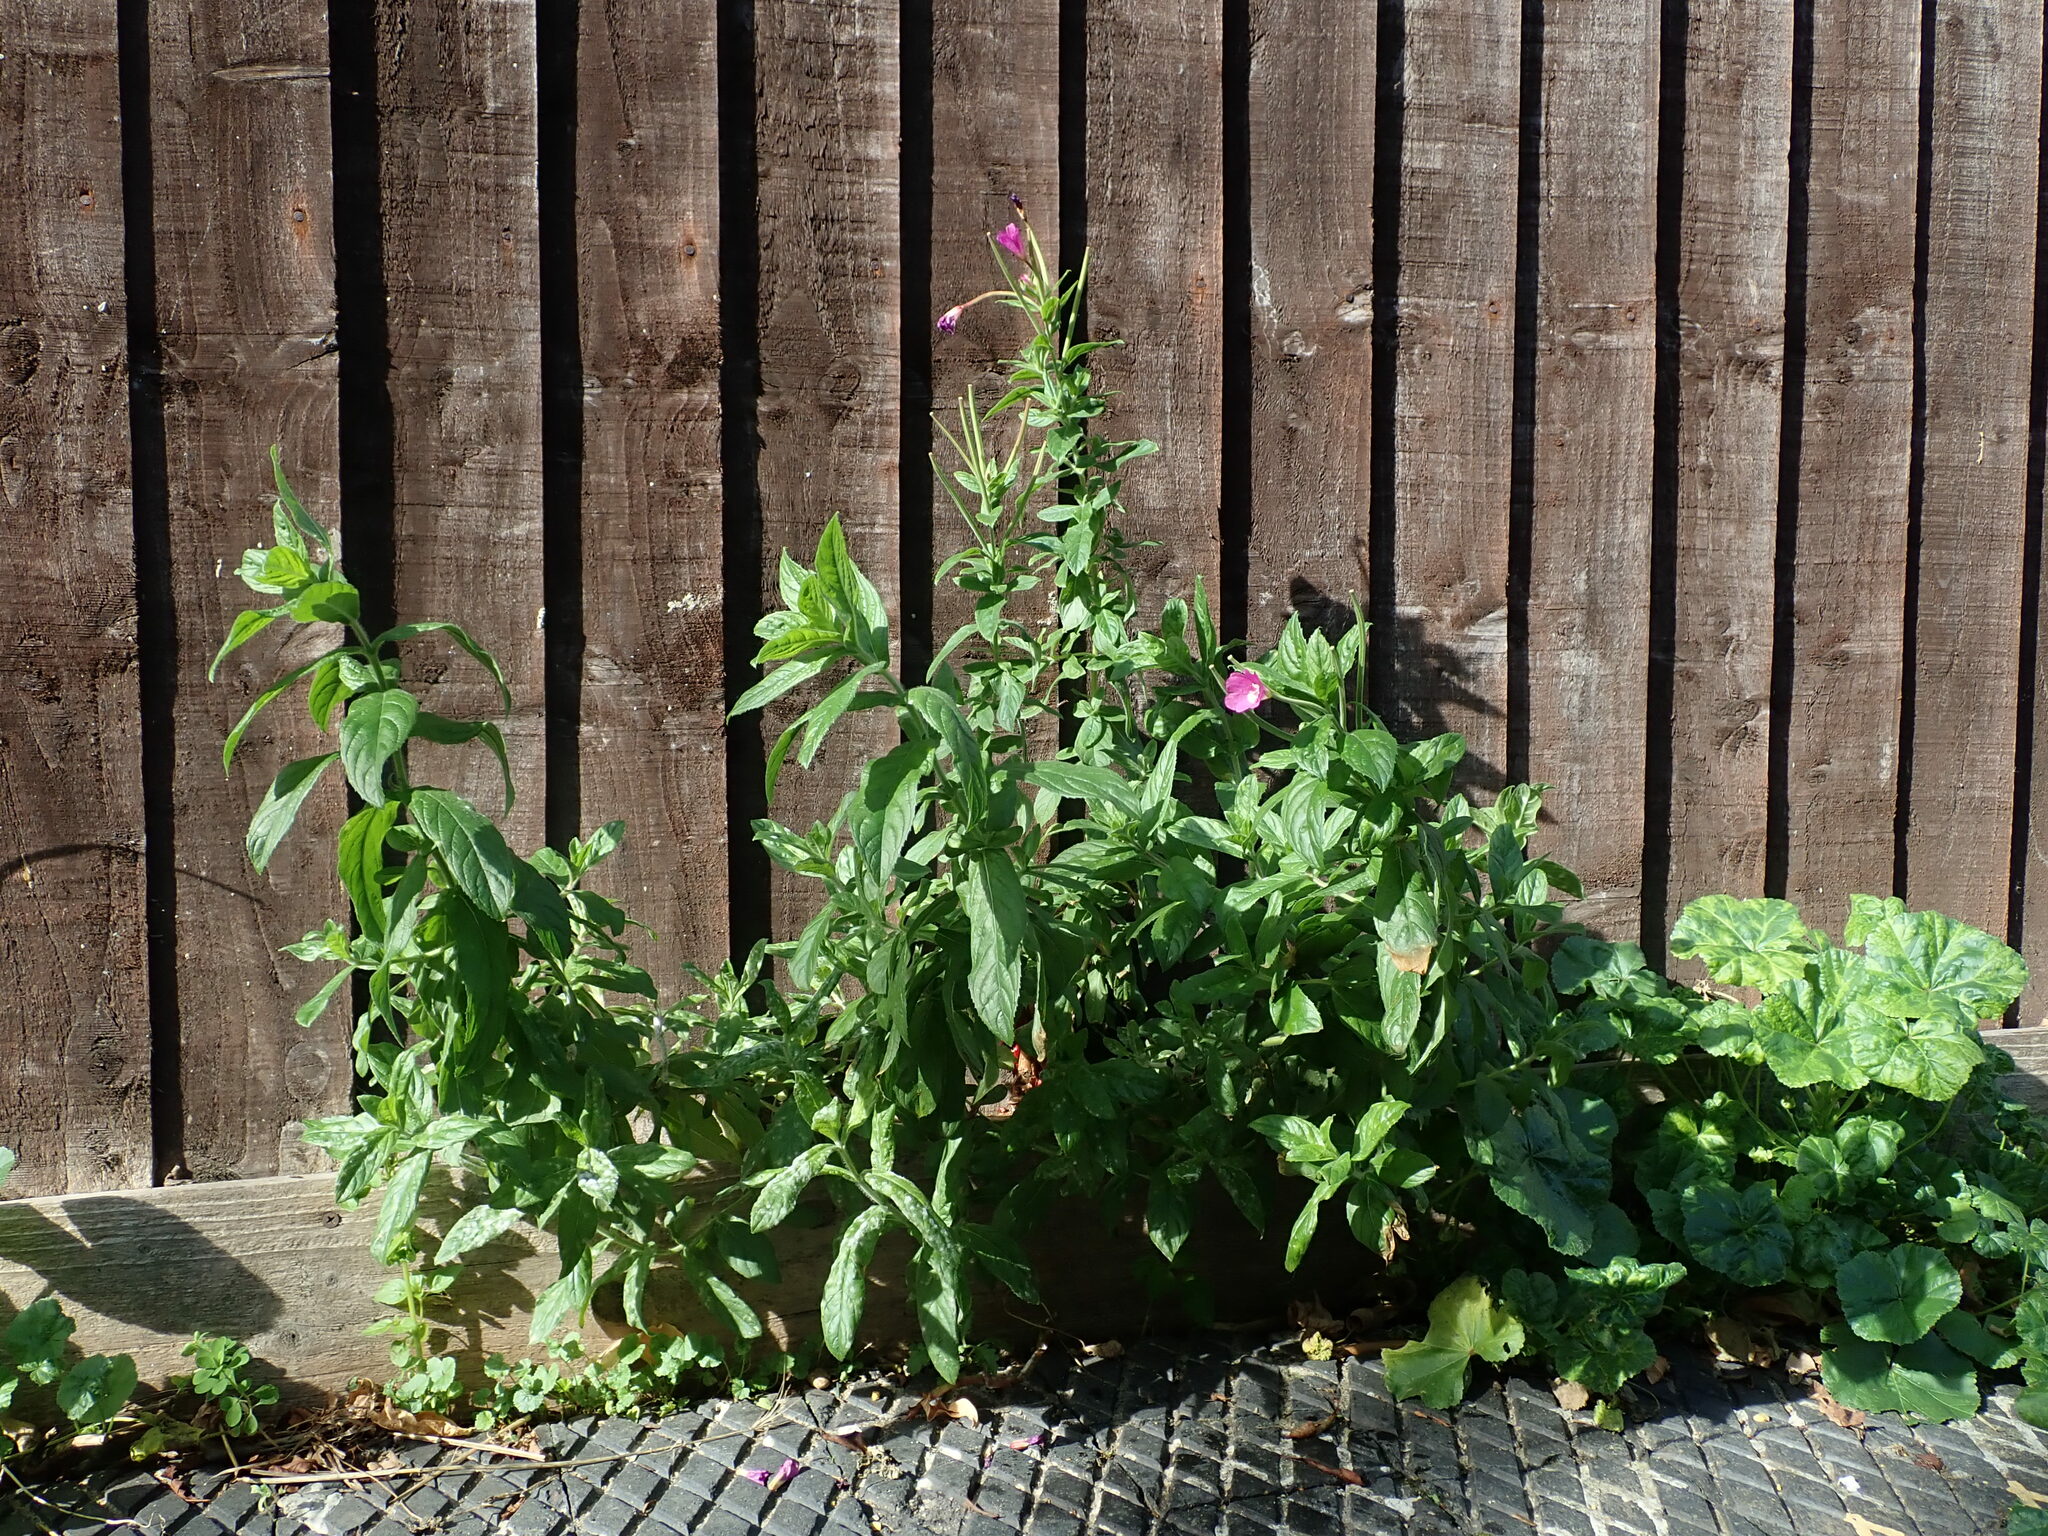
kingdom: Plantae
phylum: Tracheophyta
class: Magnoliopsida
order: Myrtales
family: Onagraceae
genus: Epilobium
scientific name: Epilobium hirsutum
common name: Great willowherb
